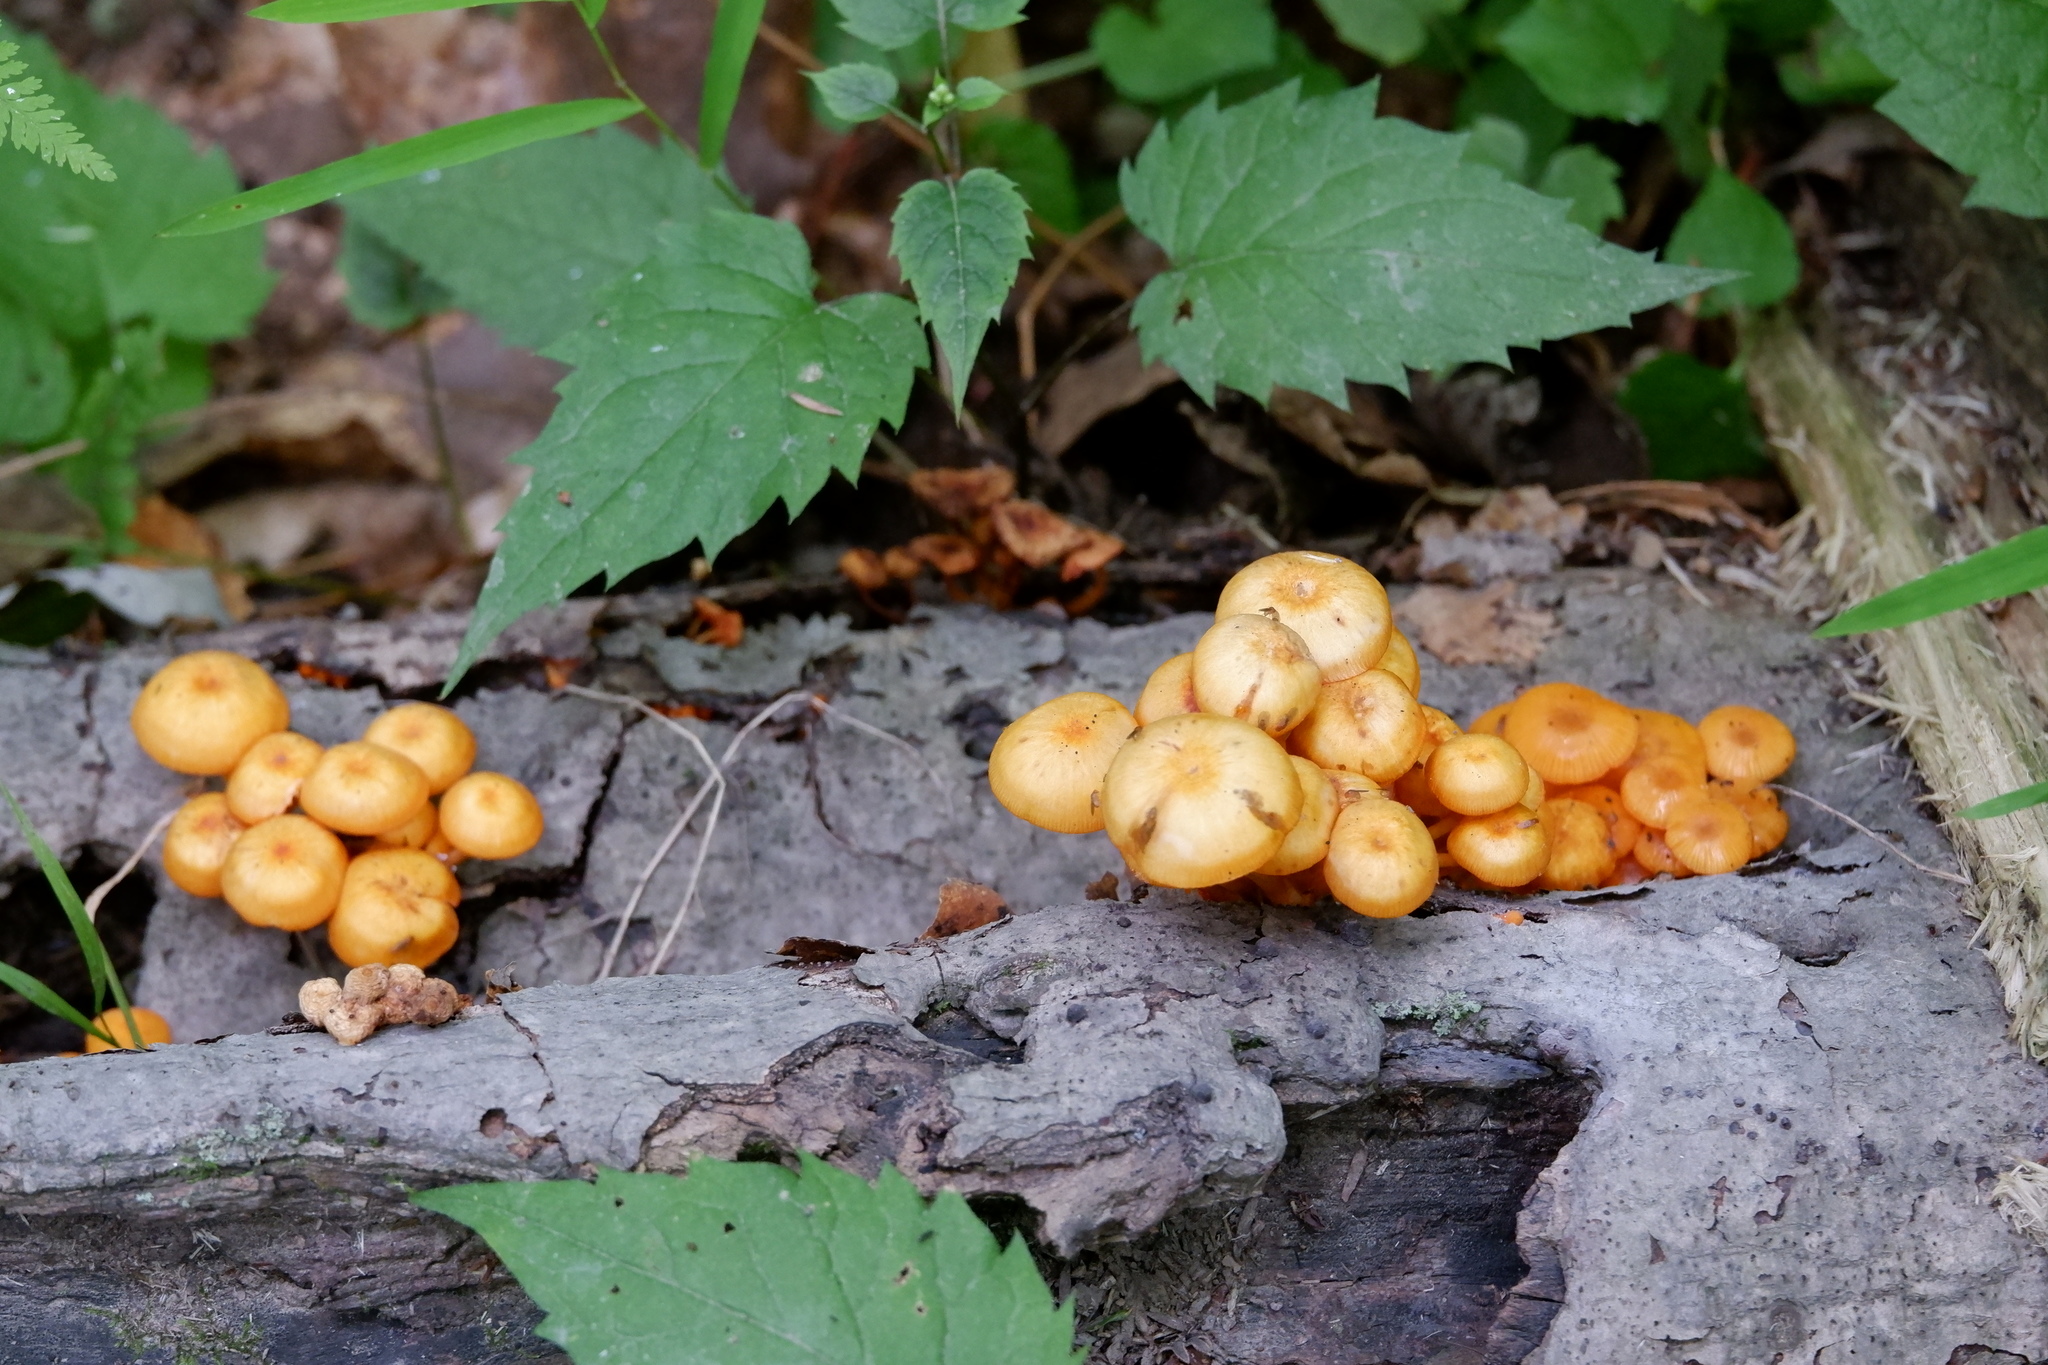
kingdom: Fungi
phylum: Basidiomycota
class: Agaricomycetes
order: Agaricales
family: Mycenaceae
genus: Mycena
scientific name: Mycena leaiana
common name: Orange mycena
